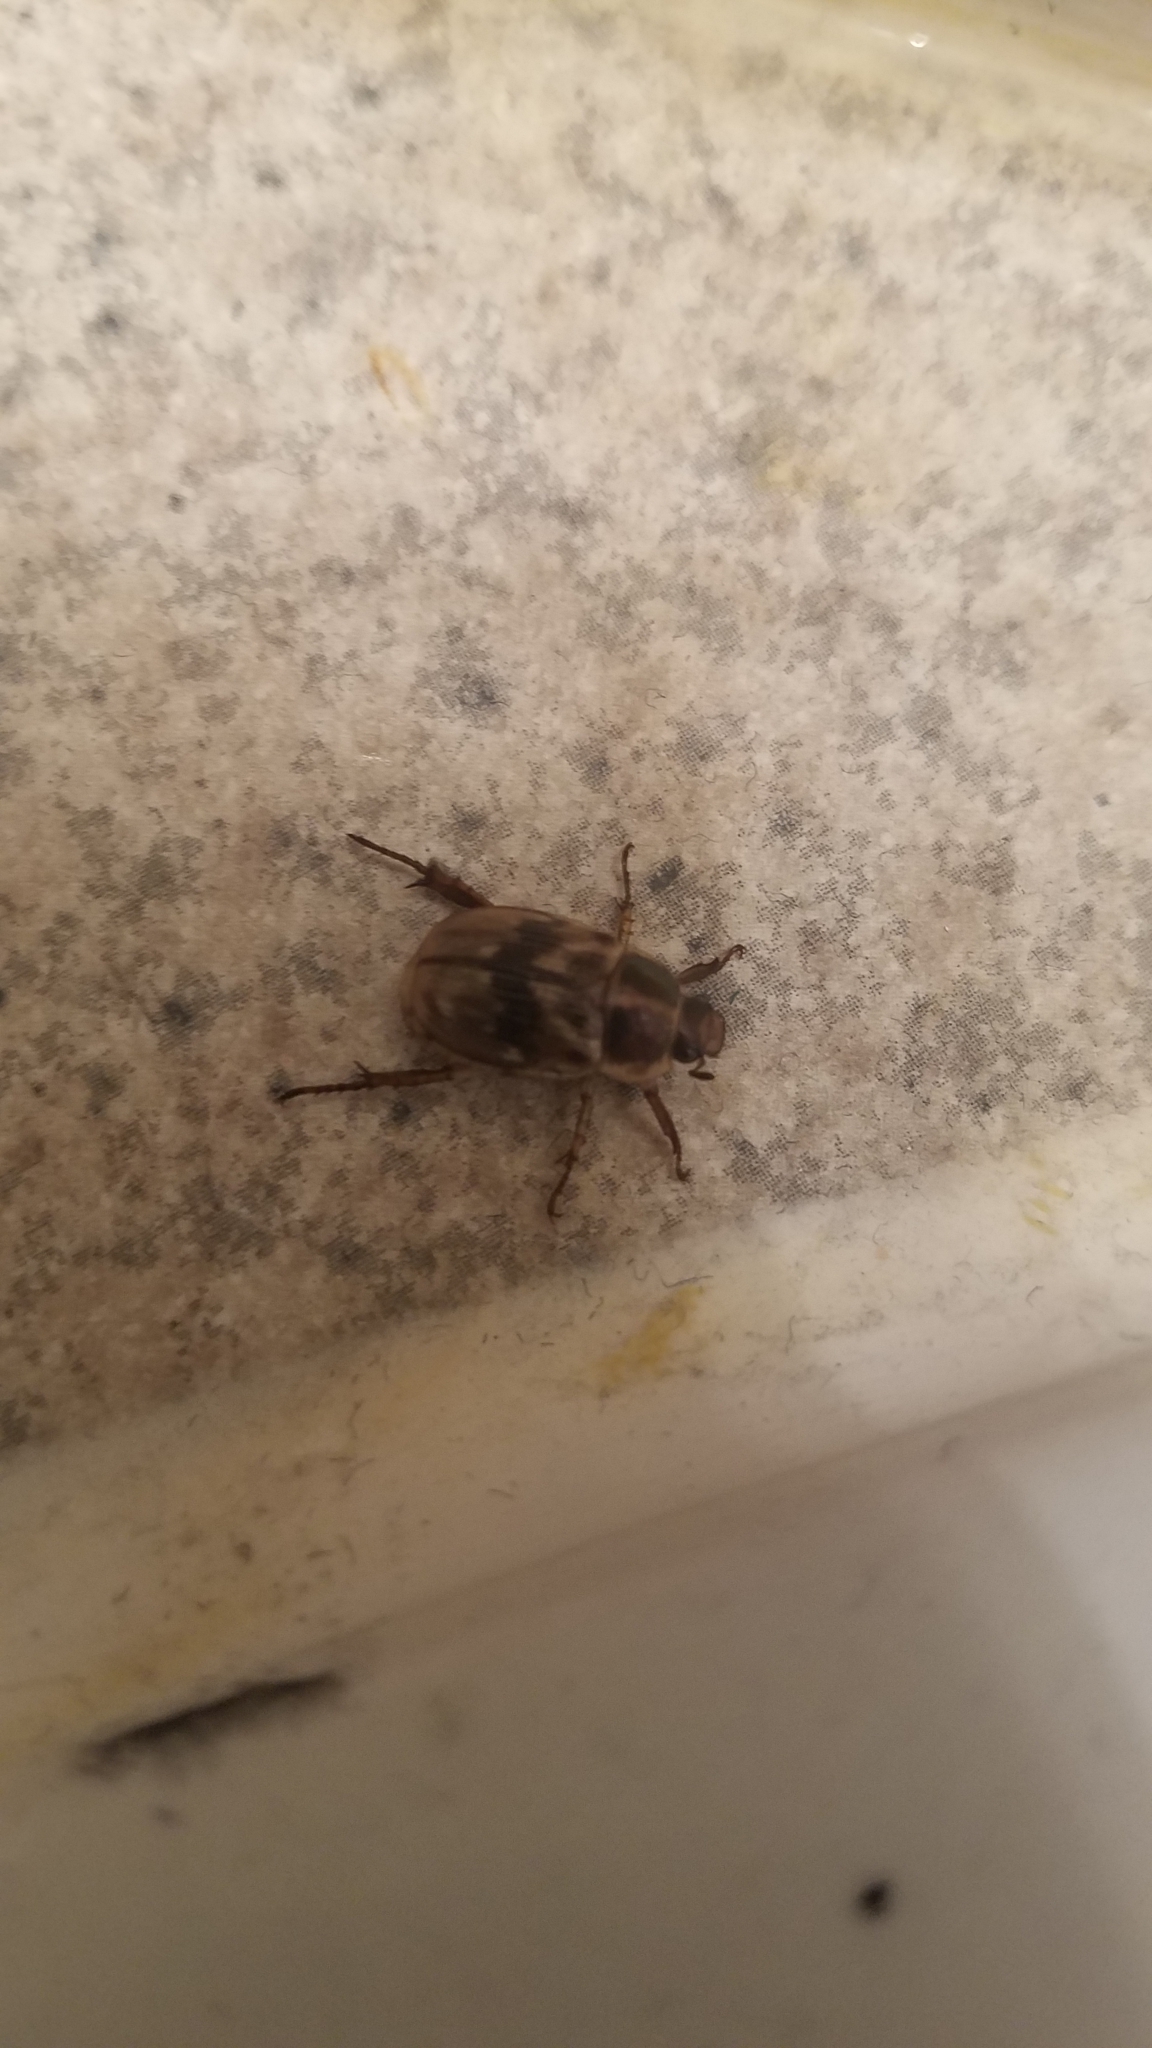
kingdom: Animalia
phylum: Arthropoda
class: Insecta
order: Coleoptera
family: Scarabaeidae
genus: Exomala
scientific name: Exomala orientalis
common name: Oriental beetle
